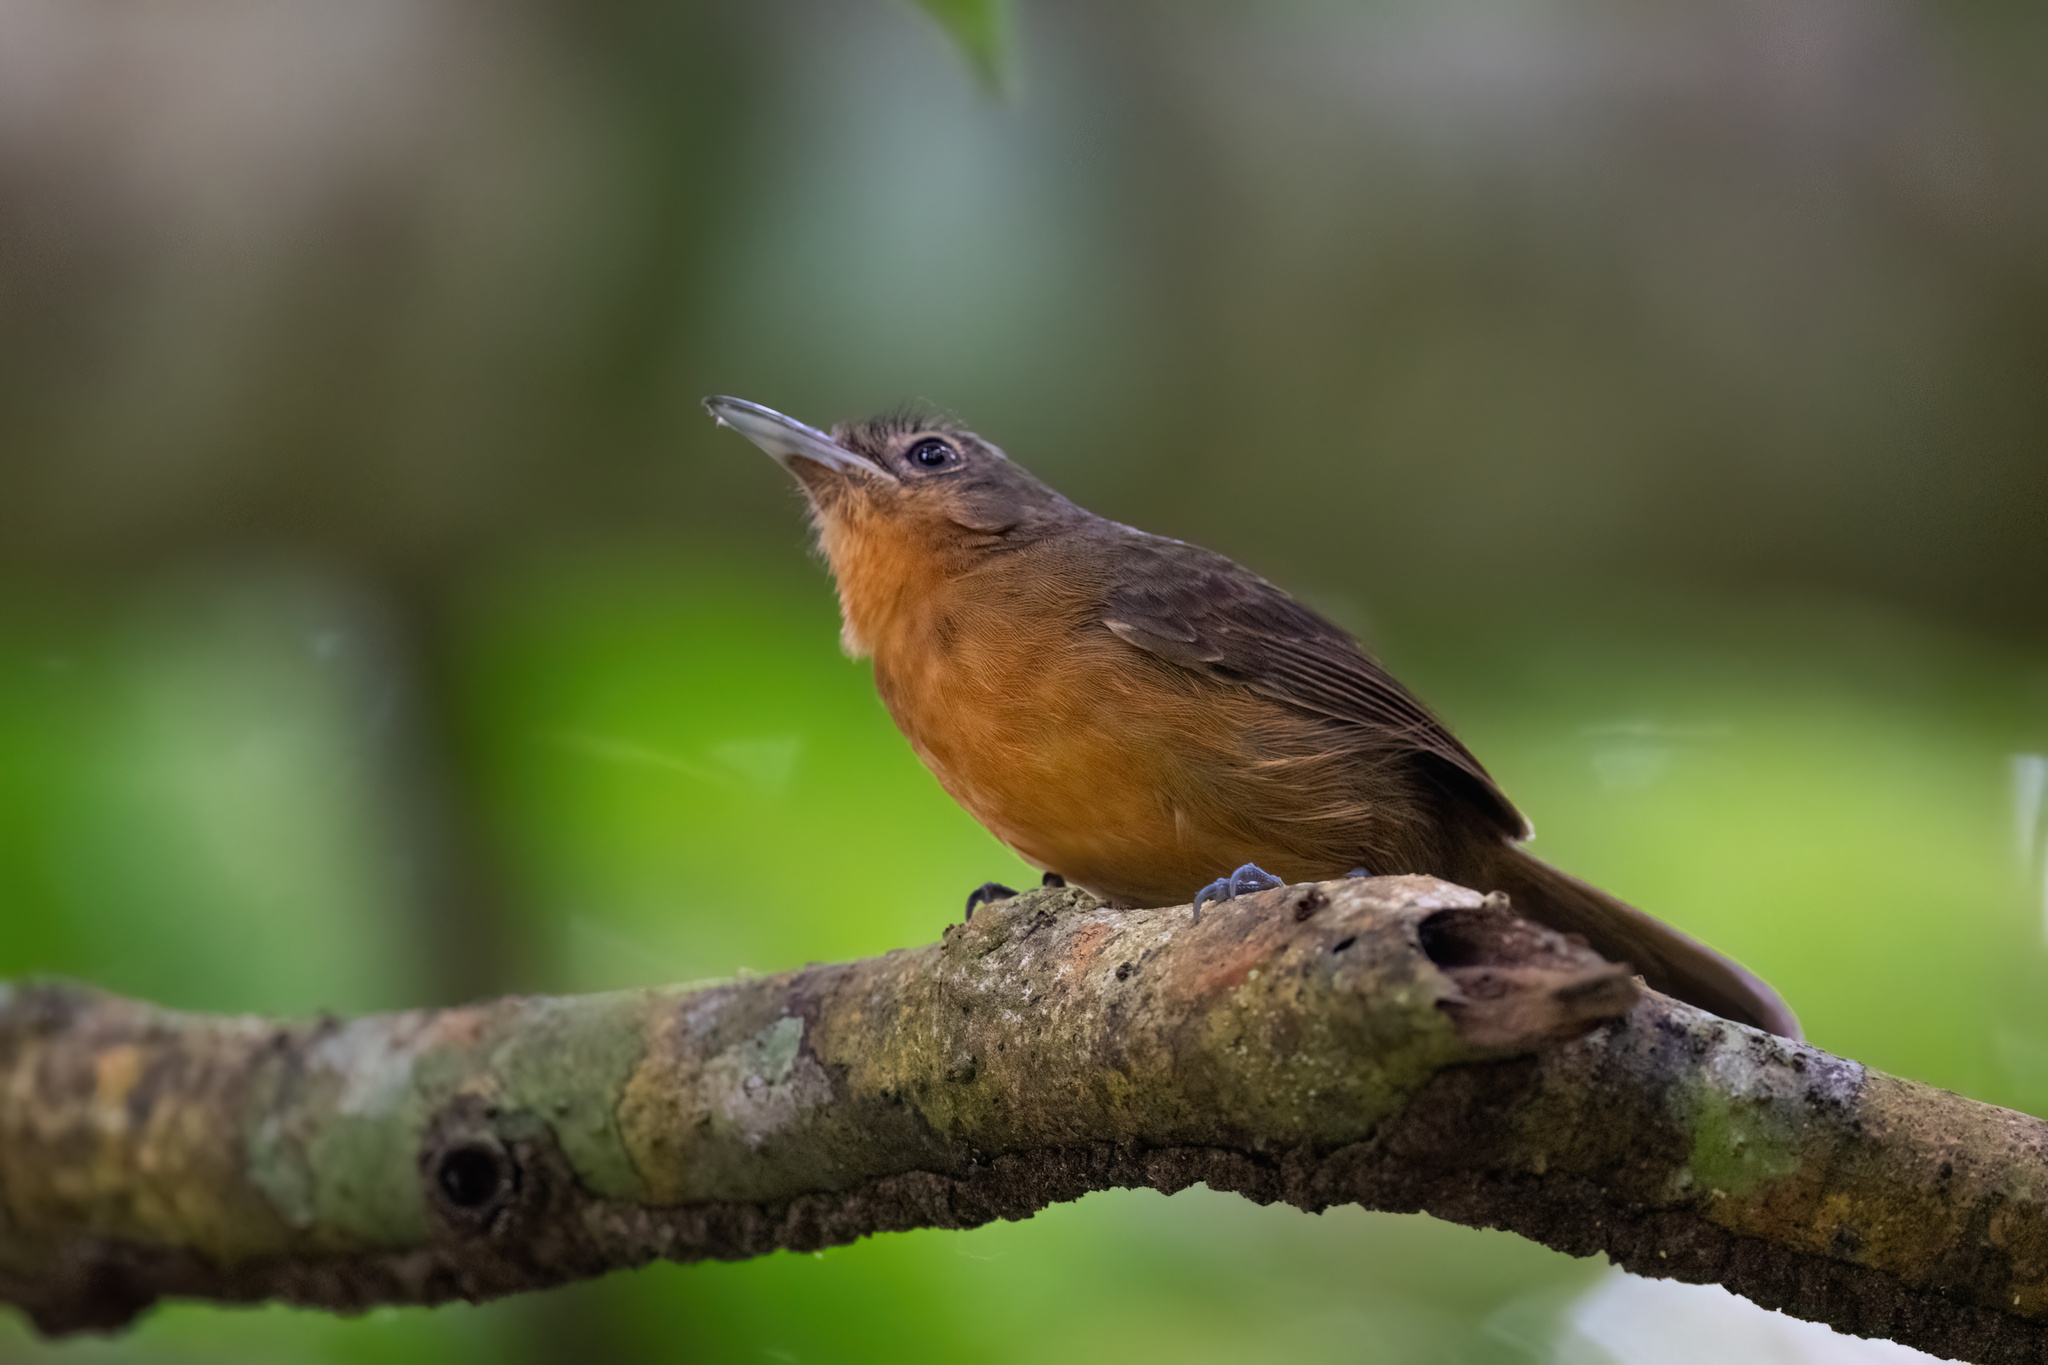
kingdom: Animalia
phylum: Chordata
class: Aves
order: Passeriformes
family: Thamnophilidae
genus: Cercomacra
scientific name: Cercomacra tyrannina
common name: Dusky antbird
